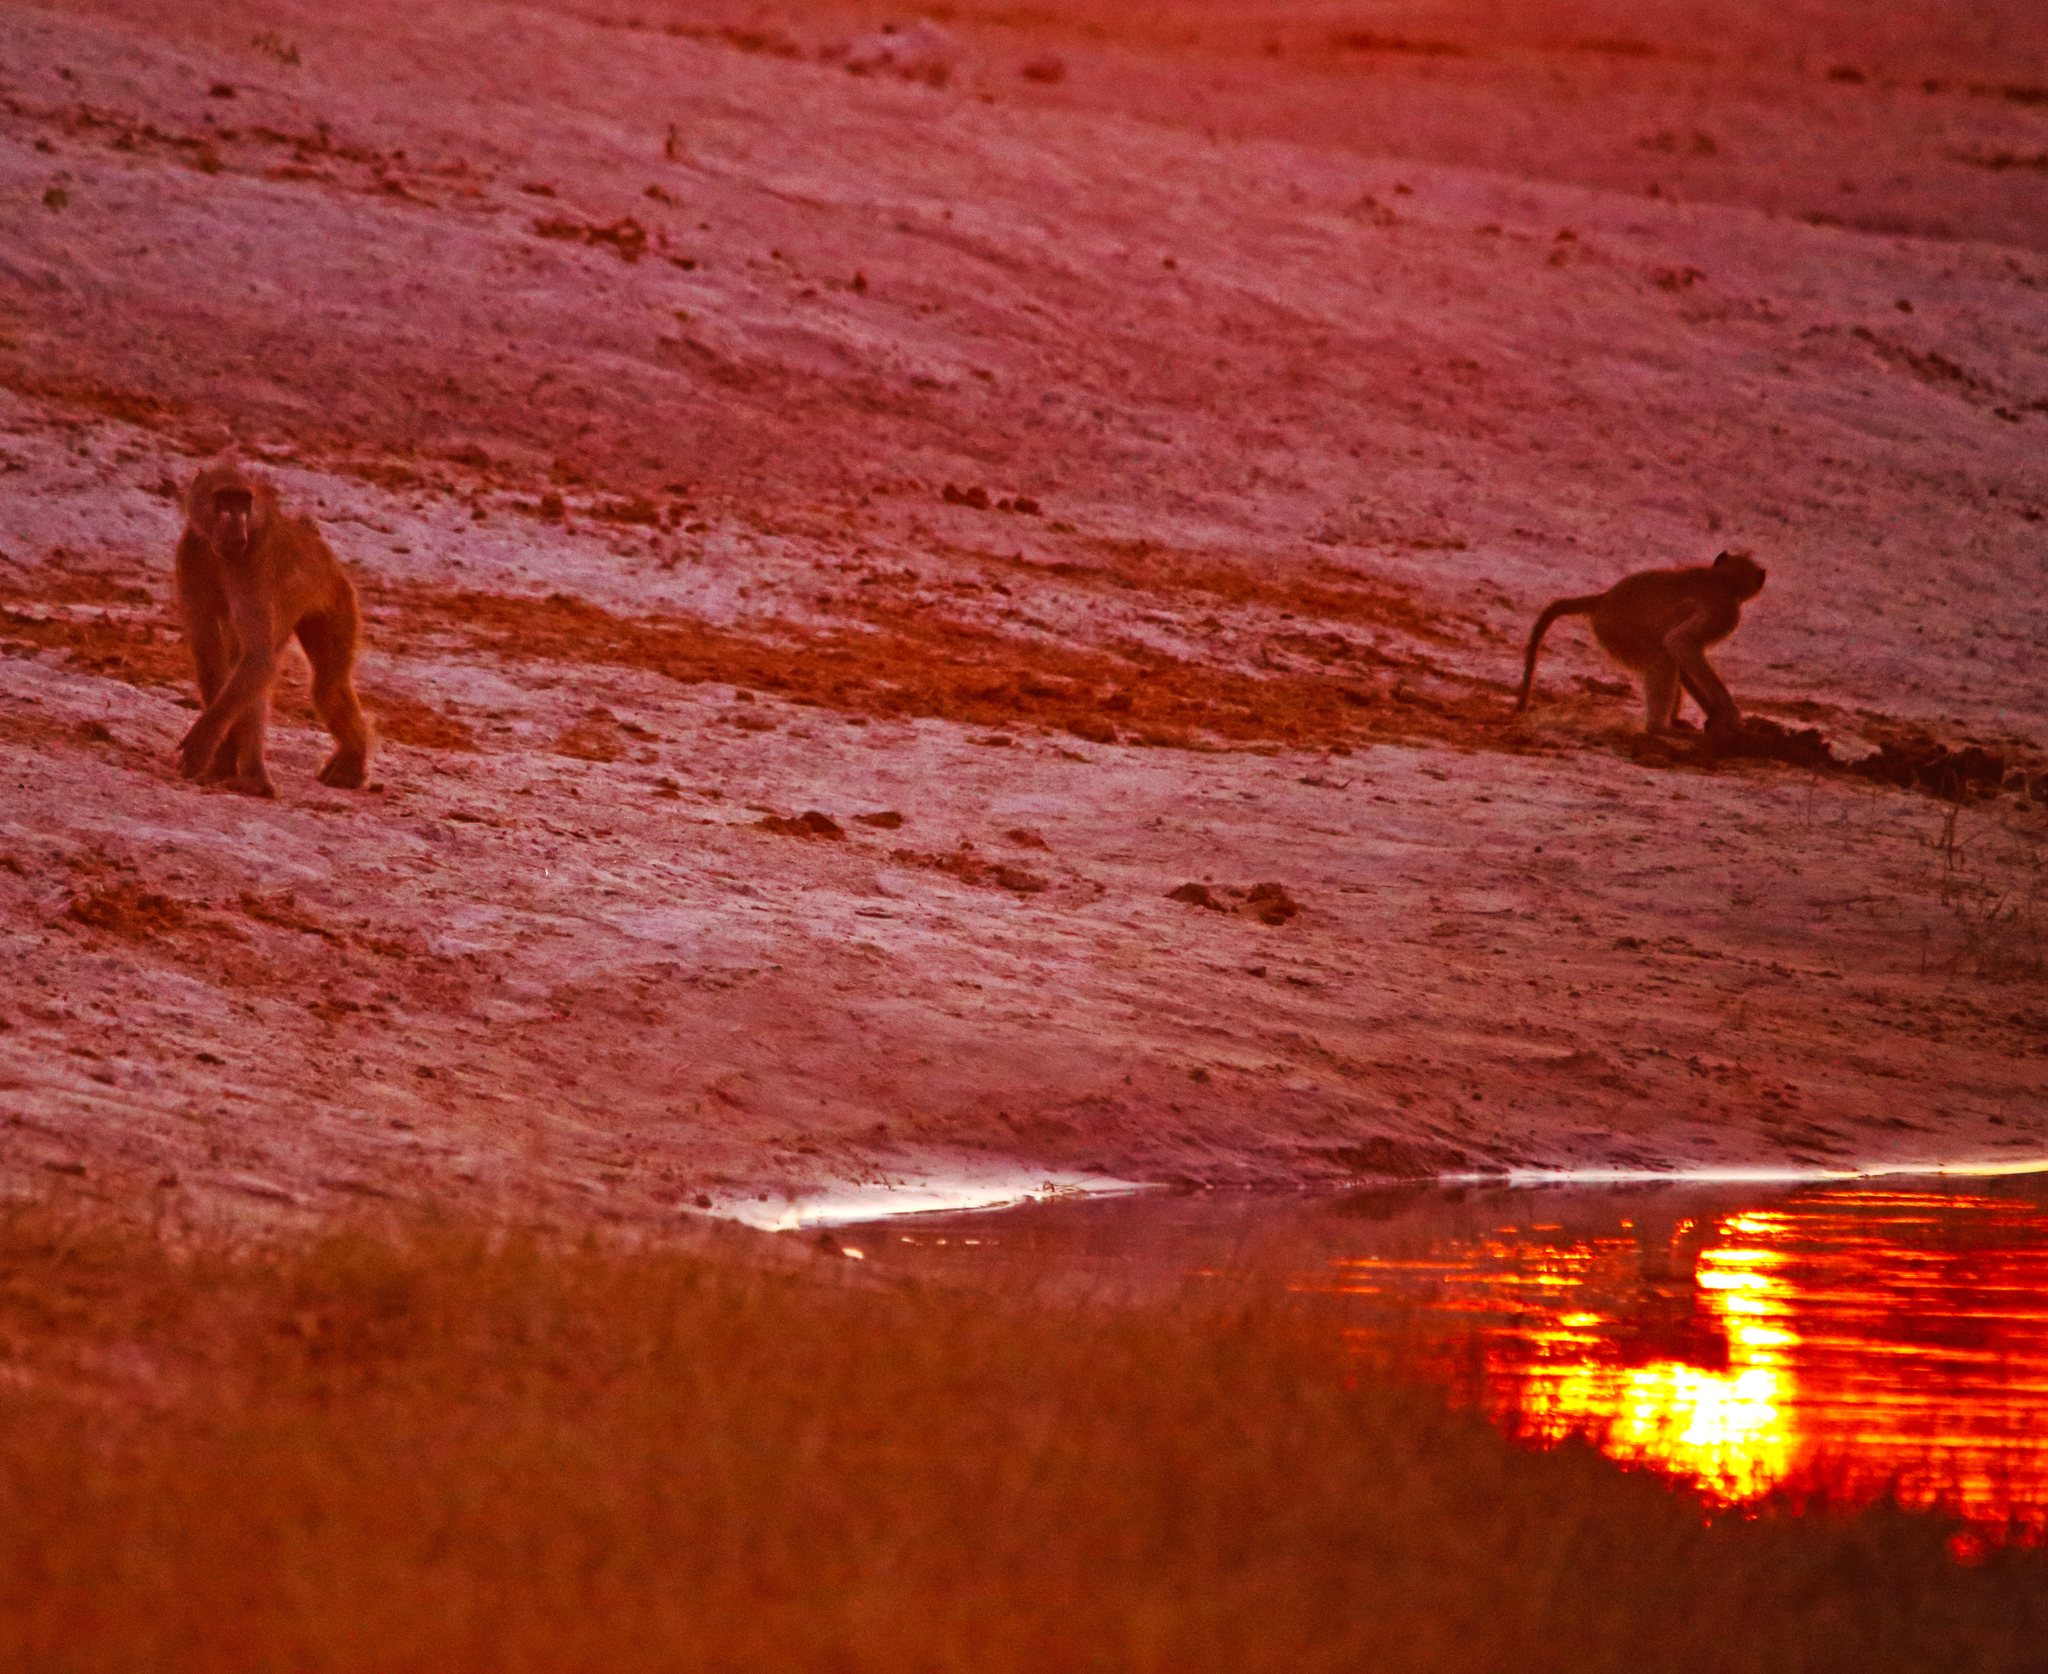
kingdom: Animalia
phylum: Chordata
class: Mammalia
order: Primates
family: Cercopithecidae
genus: Papio
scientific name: Papio ursinus
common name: Chacma baboon
